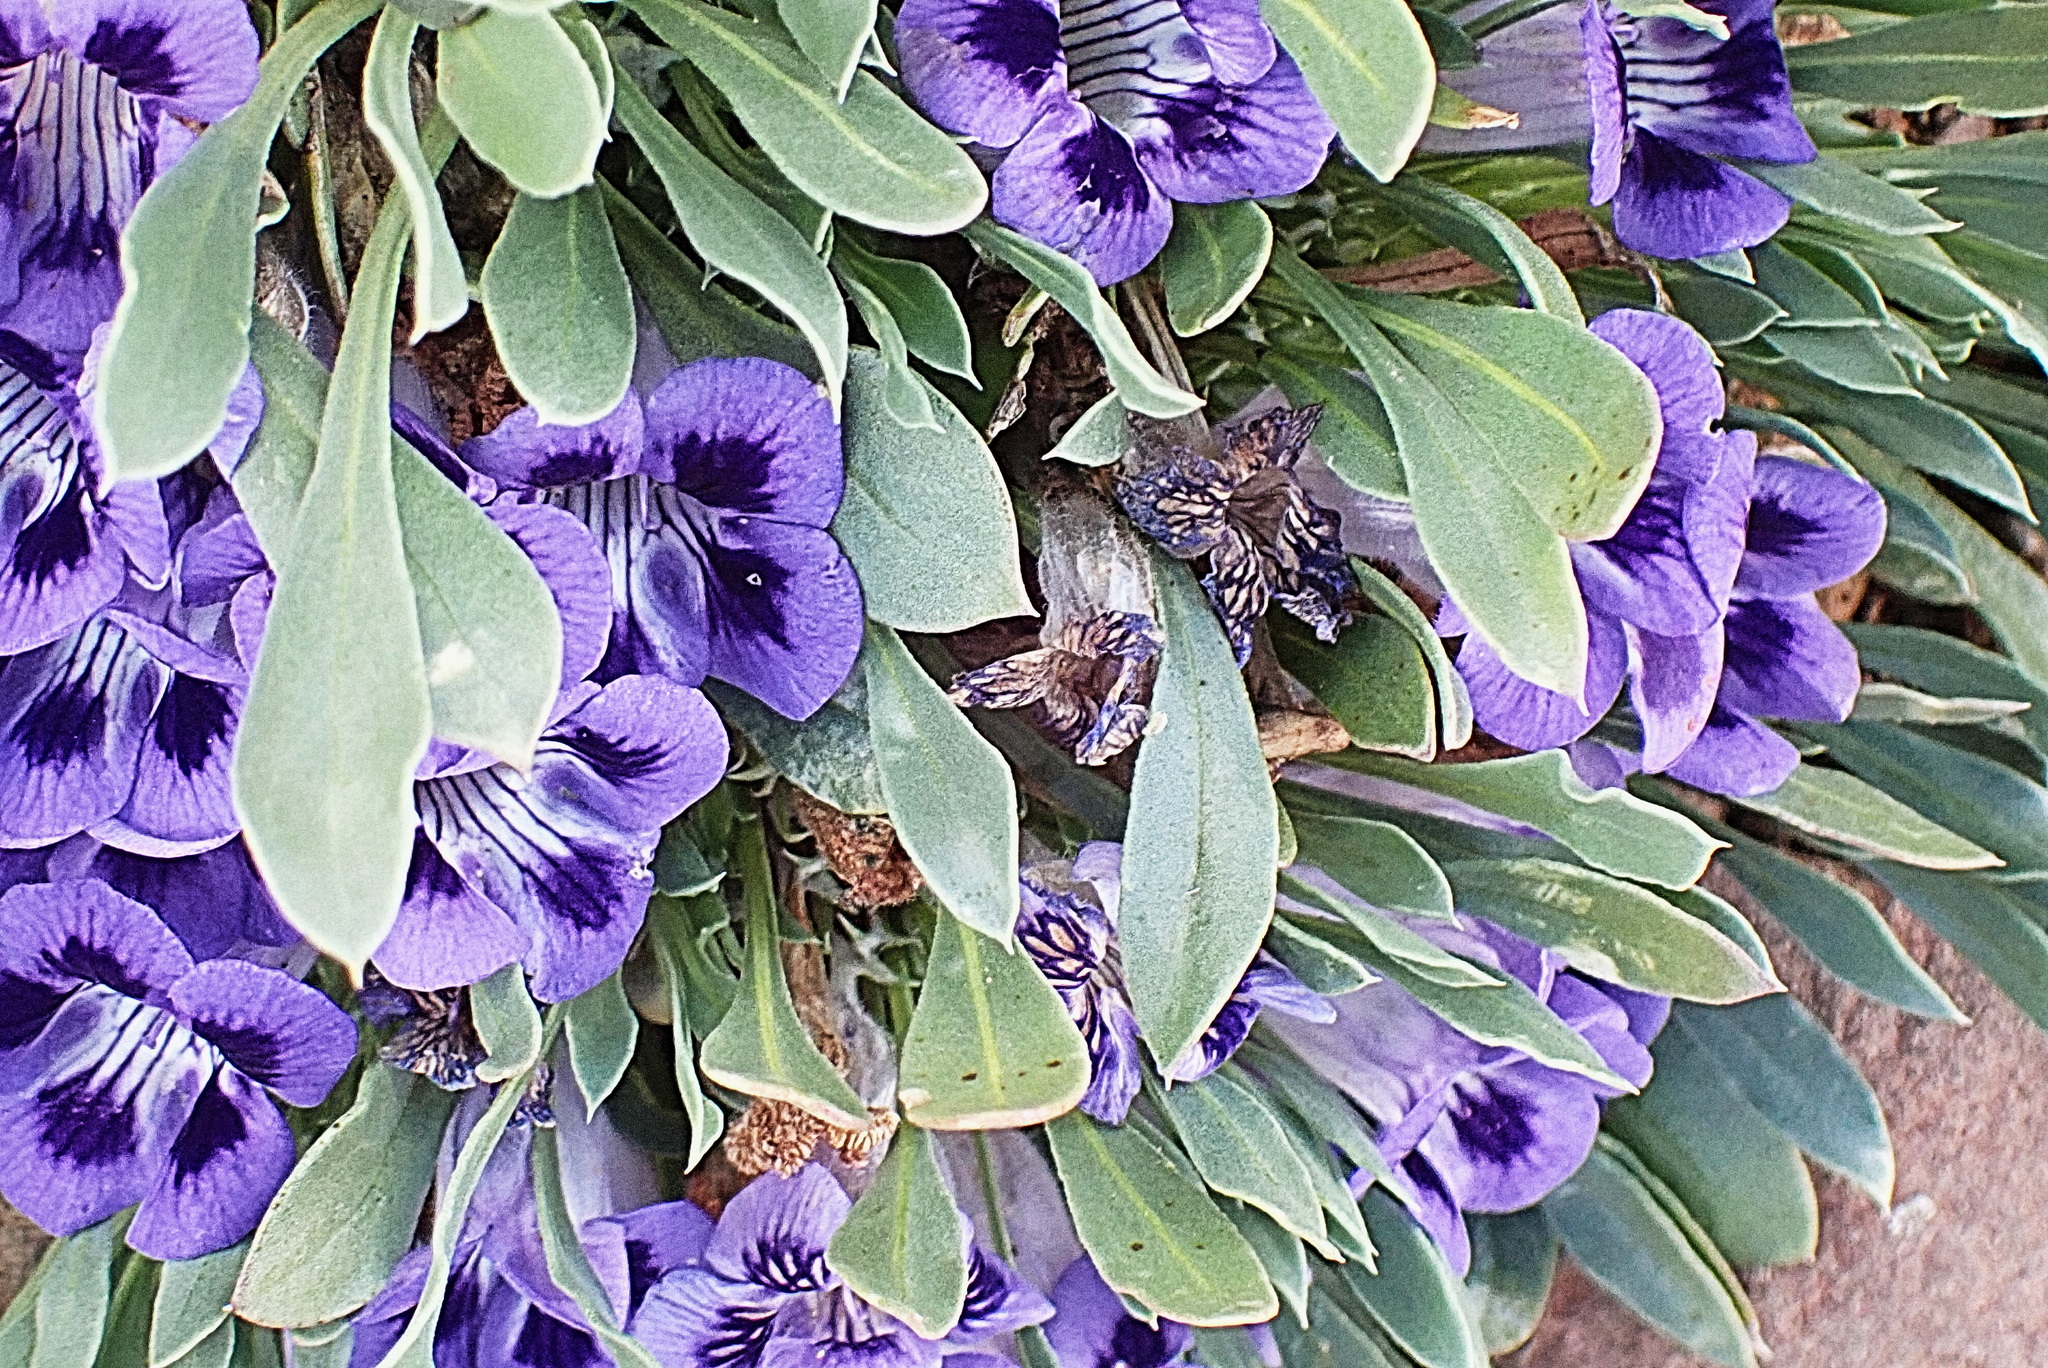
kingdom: Plantae
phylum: Tracheophyta
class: Magnoliopsida
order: Lamiales
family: Scrophulariaceae
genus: Aptosimum
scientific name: Aptosimum indivisum
